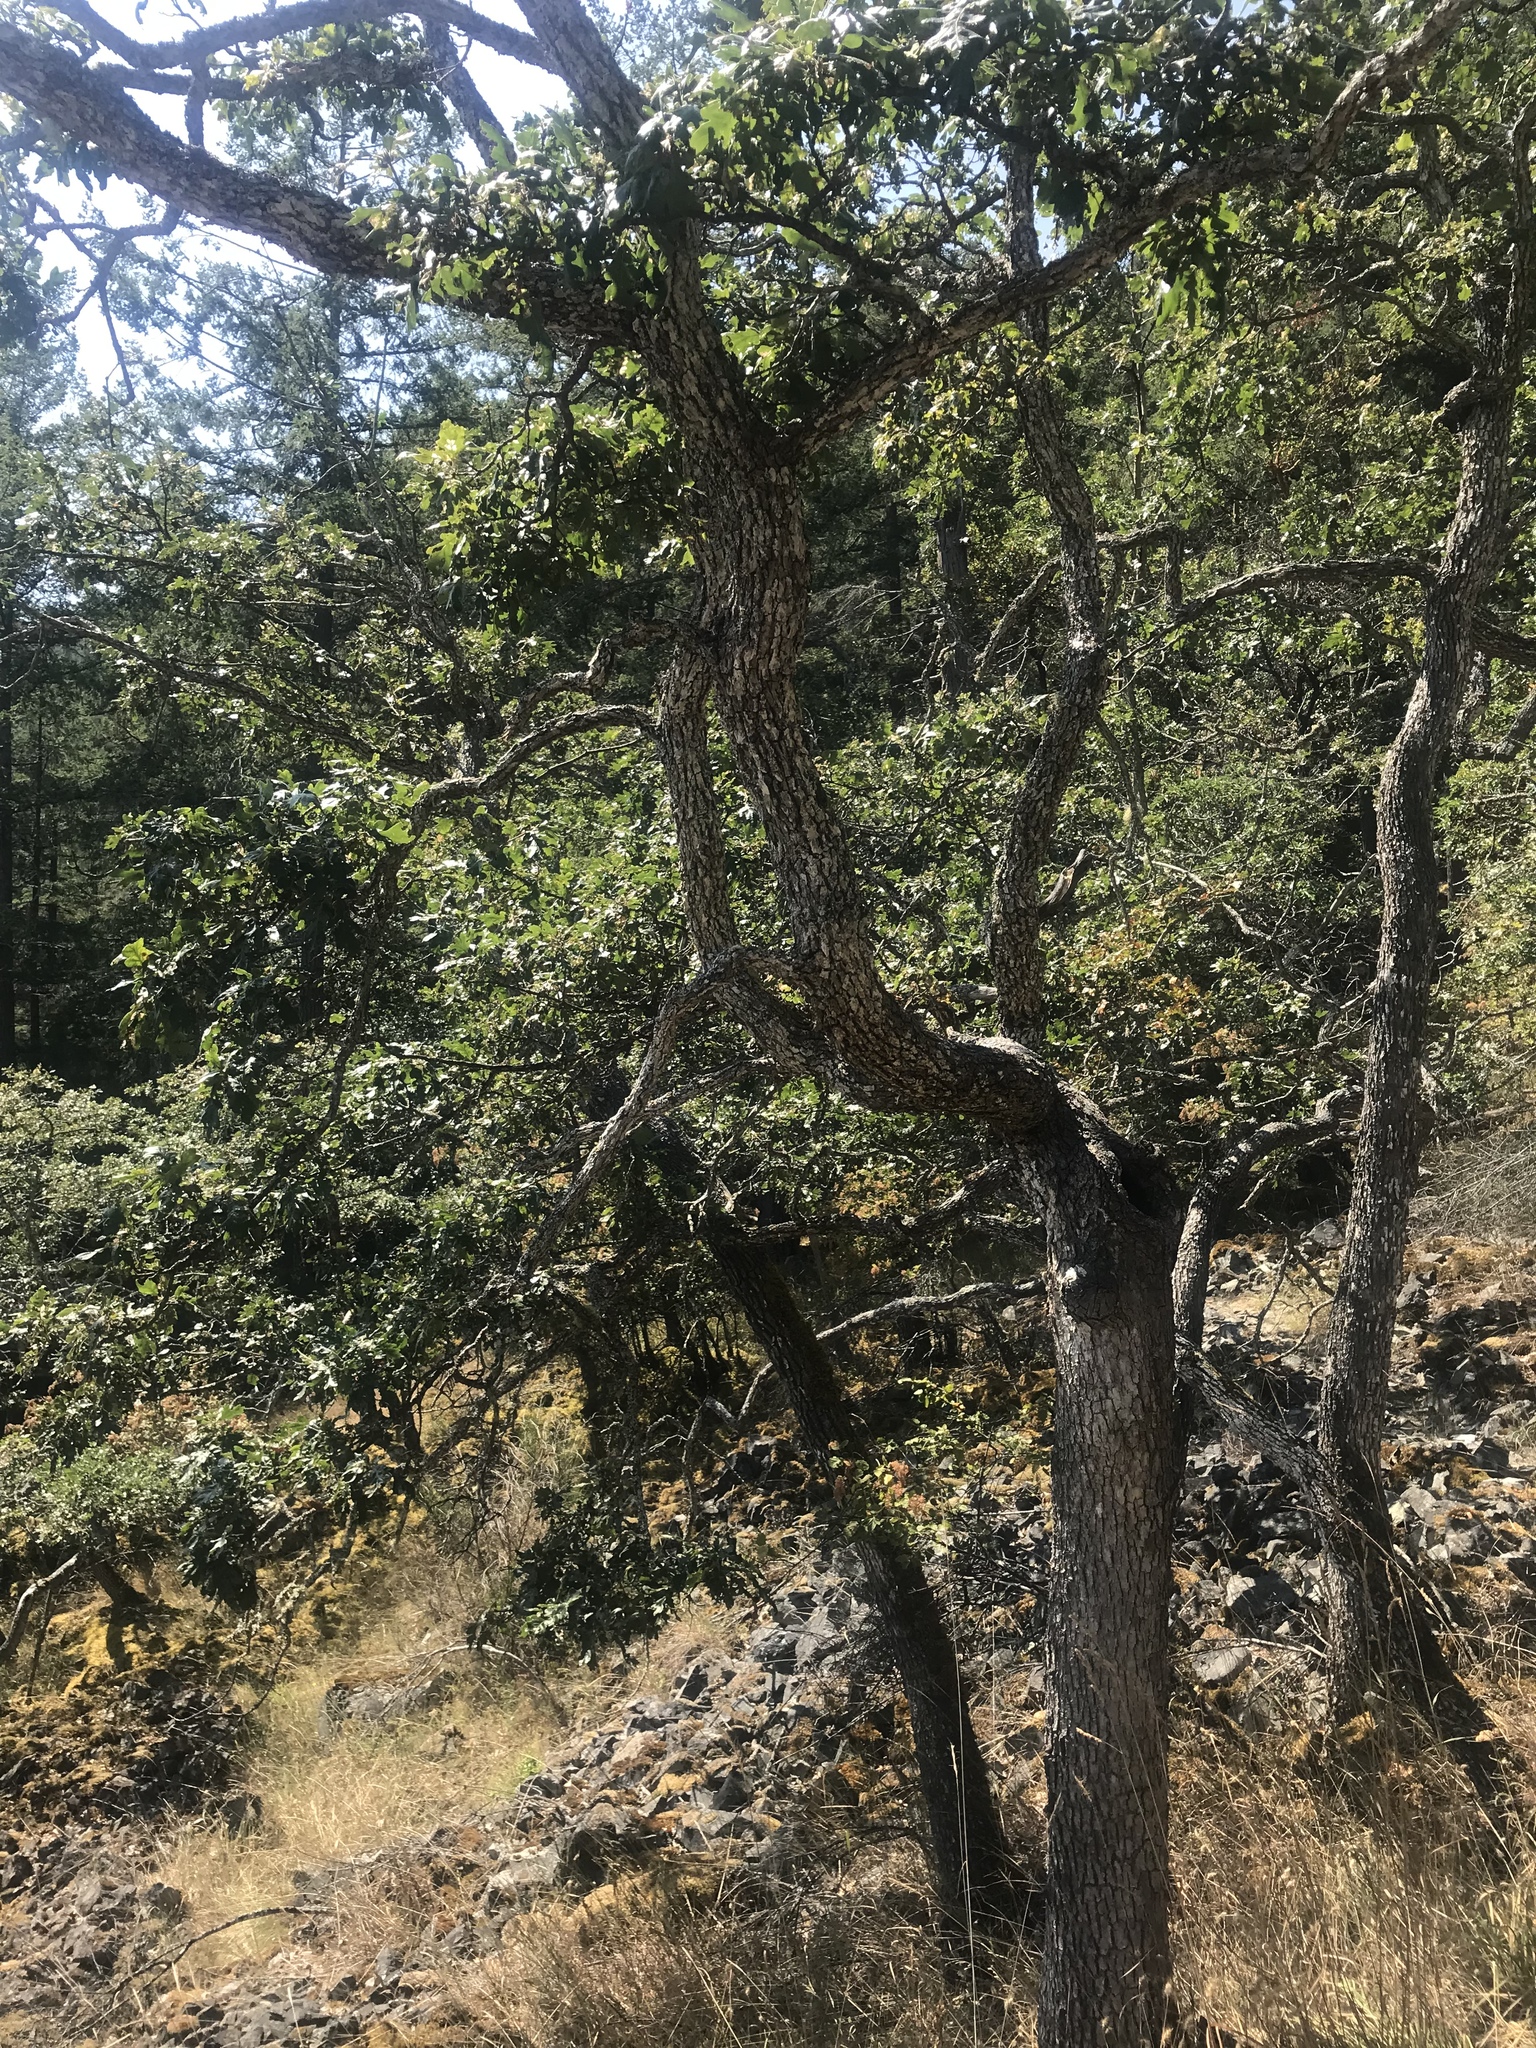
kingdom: Plantae
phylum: Tracheophyta
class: Magnoliopsida
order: Fagales
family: Fagaceae
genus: Quercus
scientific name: Quercus garryana
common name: Garry oak
